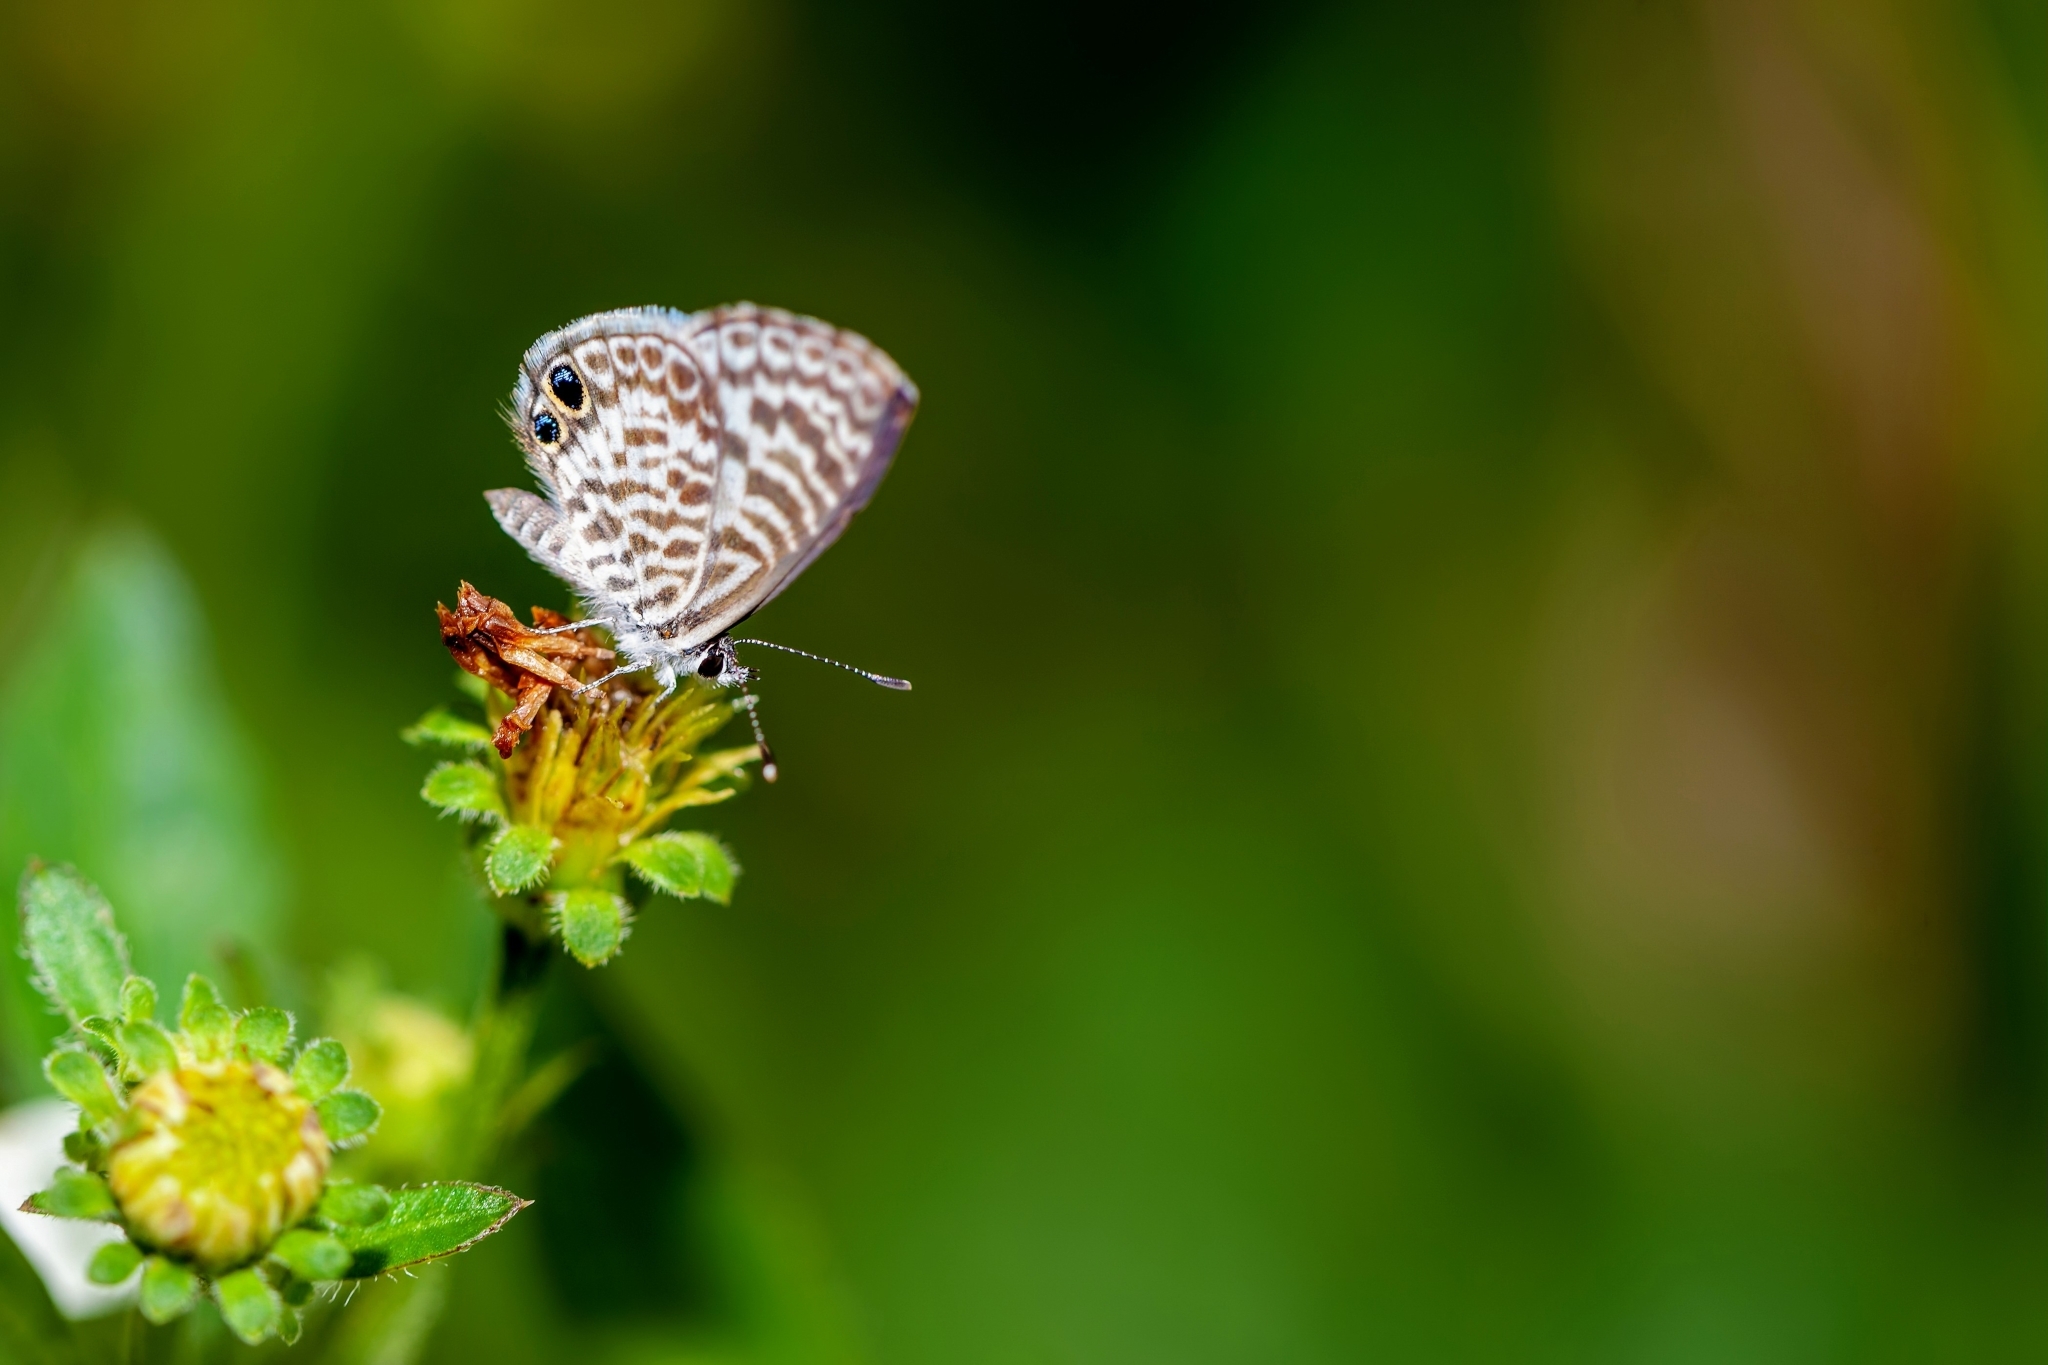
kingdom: Animalia
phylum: Arthropoda
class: Insecta
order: Lepidoptera
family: Lycaenidae
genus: Leptotes
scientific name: Leptotes cassius
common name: Cassius blue
